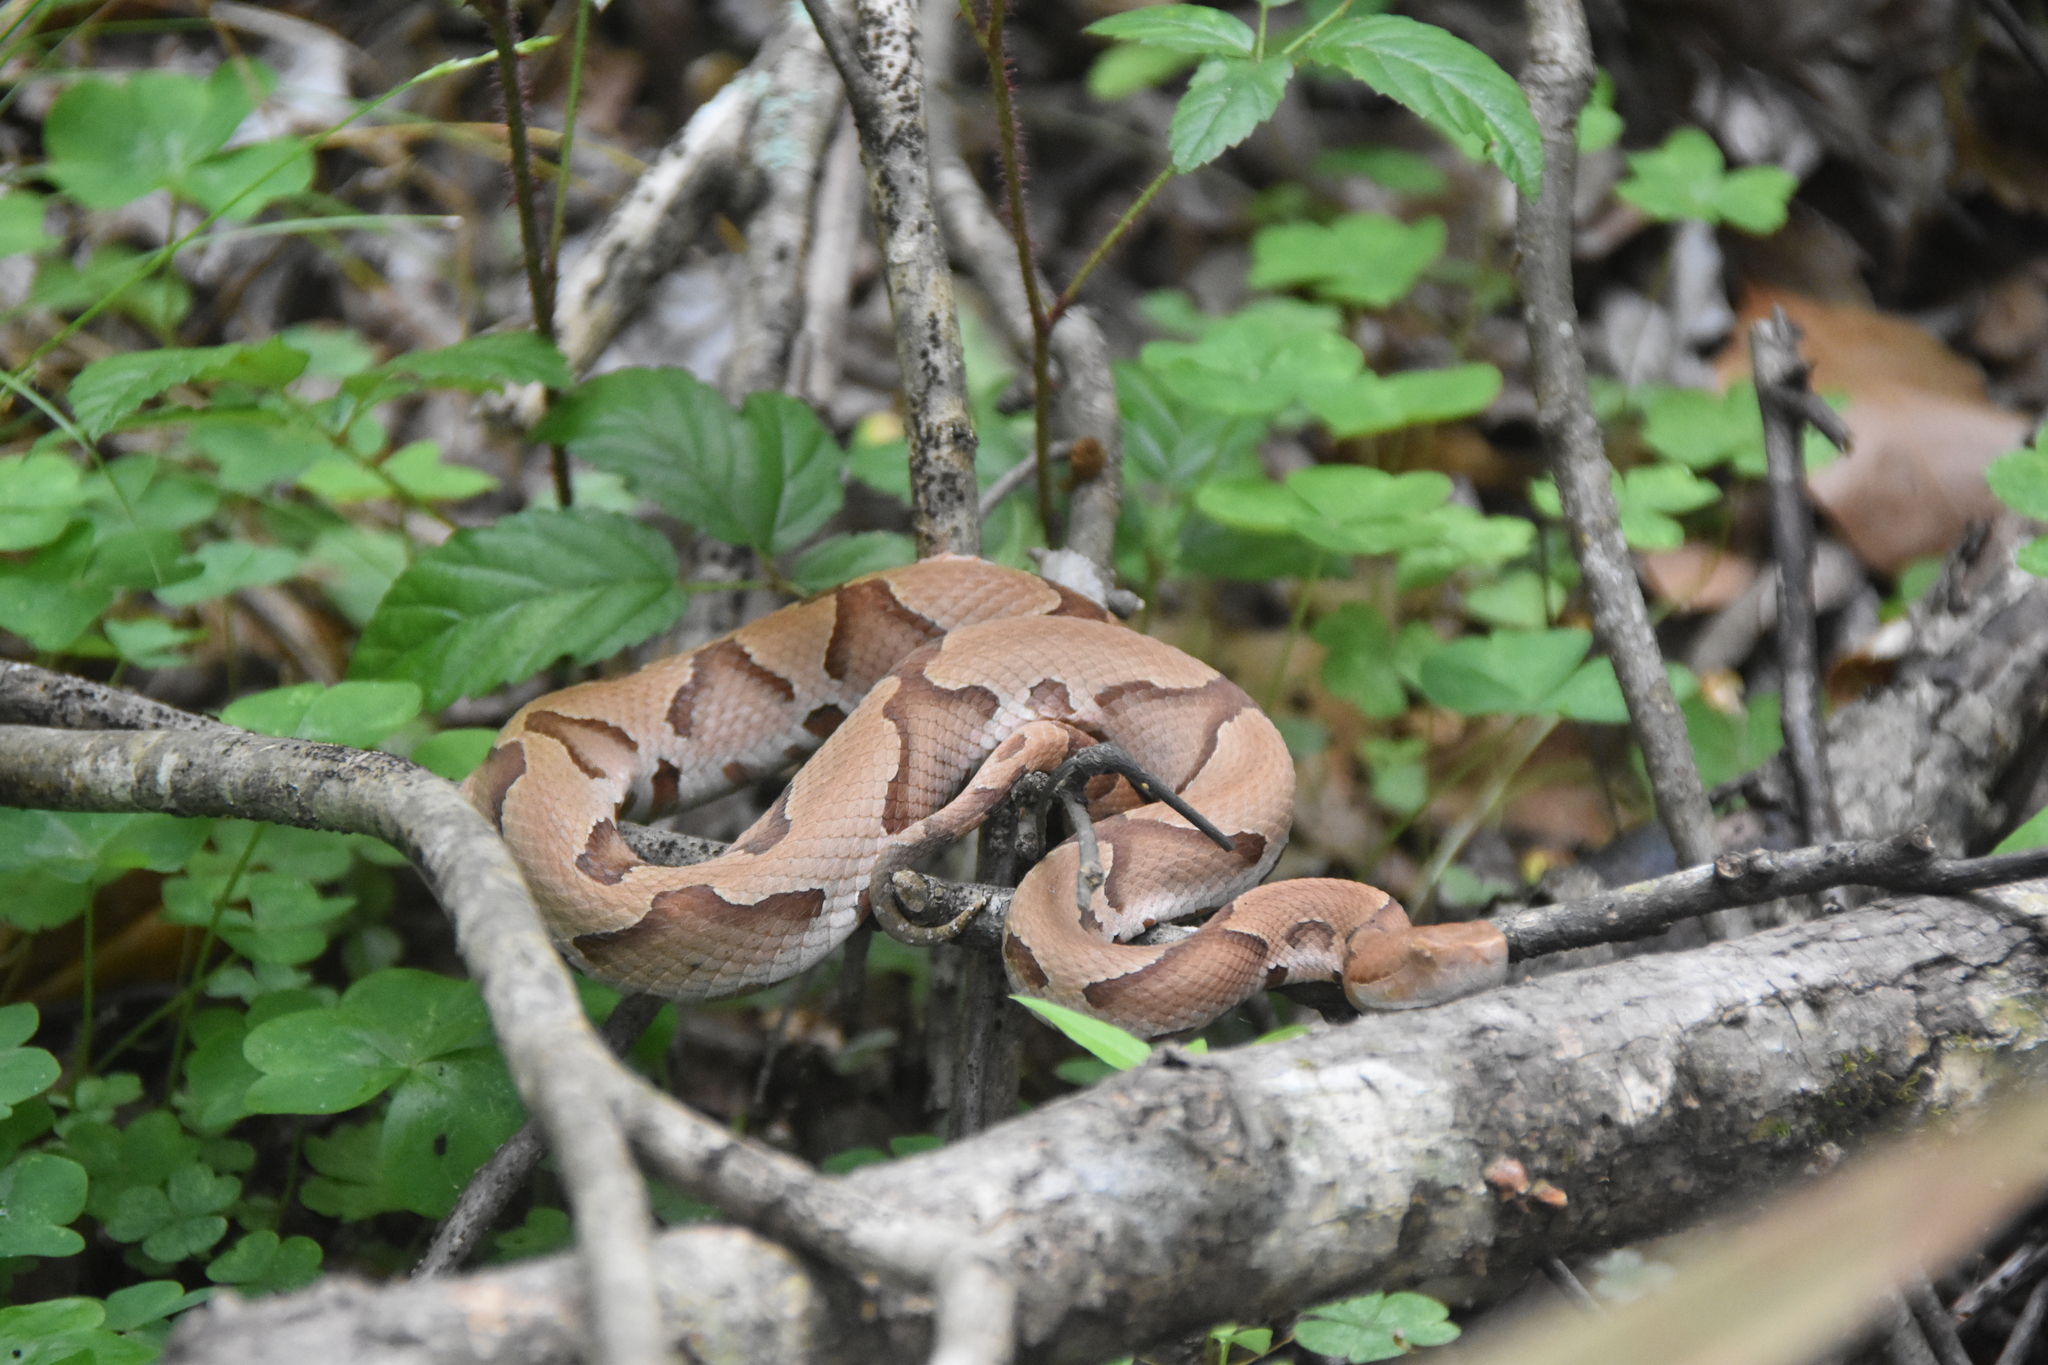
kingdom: Animalia
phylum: Chordata
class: Squamata
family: Viperidae
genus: Agkistrodon
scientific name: Agkistrodon contortrix
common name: Northern copperhead
